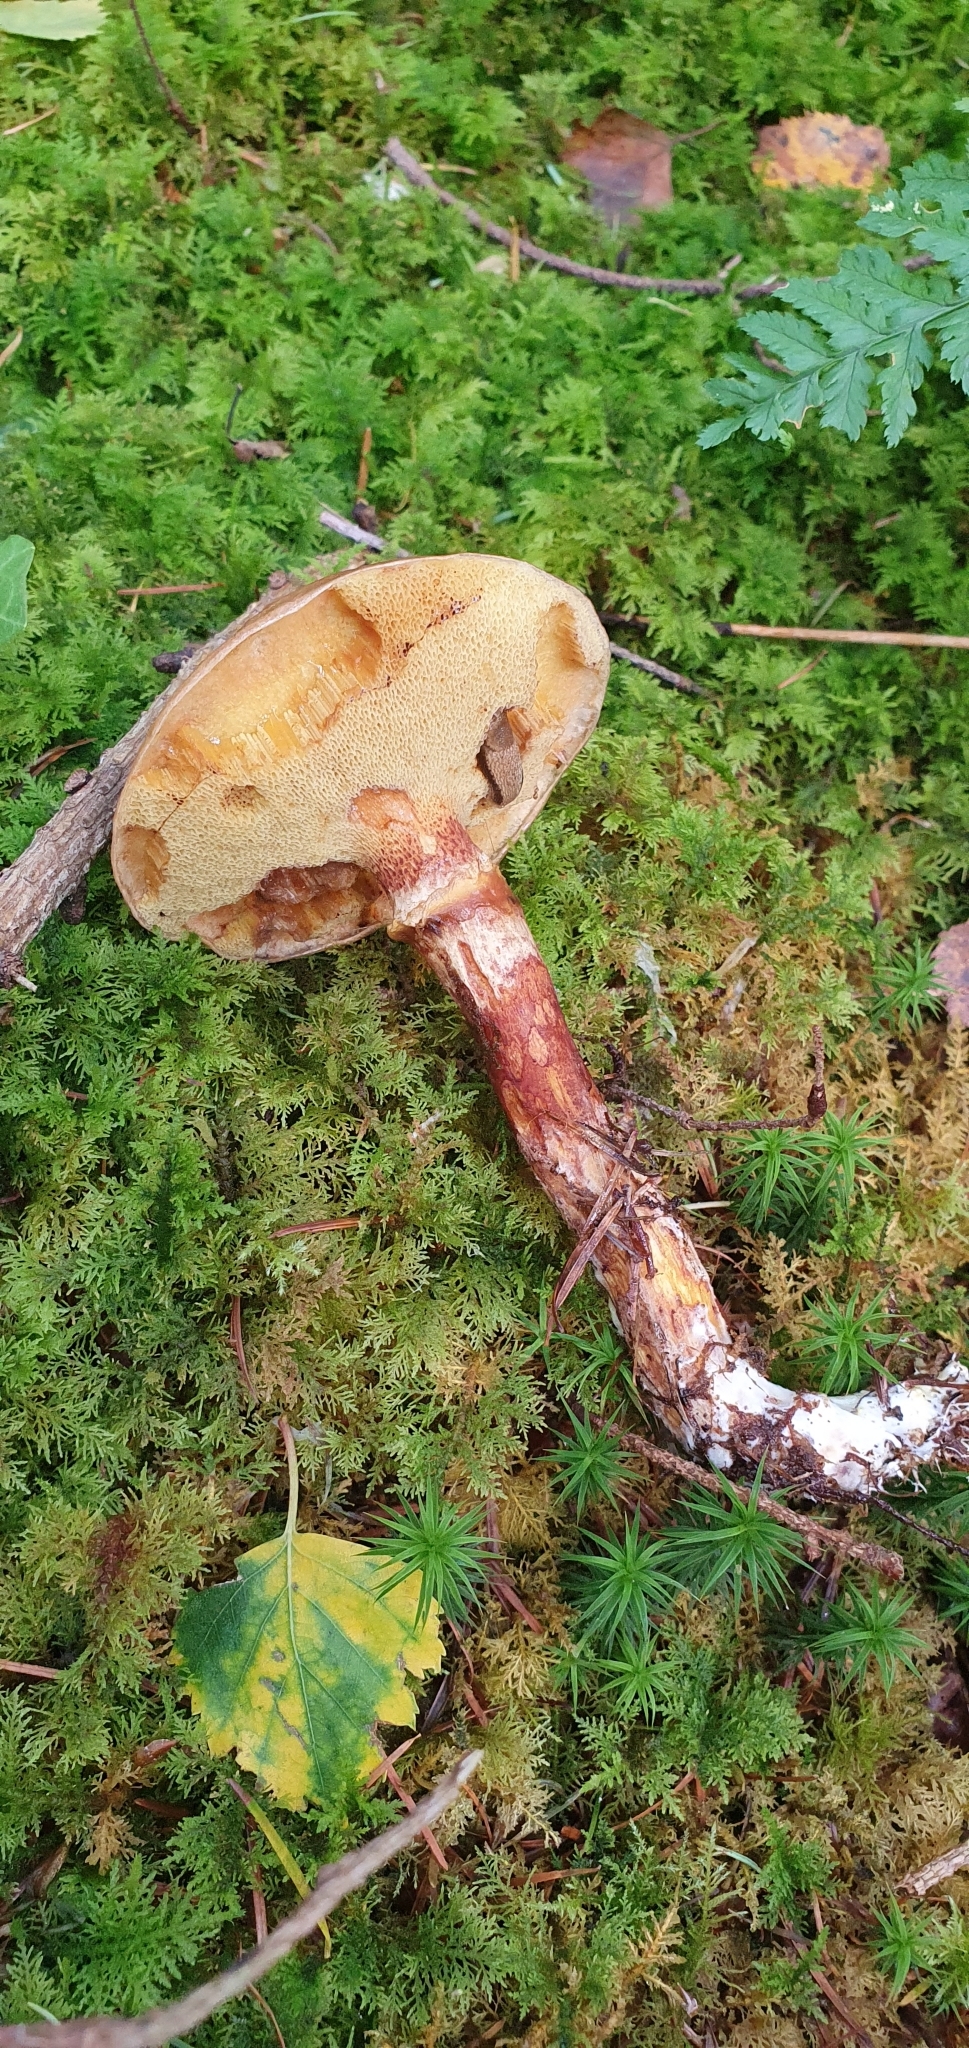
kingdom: Fungi
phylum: Basidiomycota
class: Agaricomycetes
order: Boletales
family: Suillaceae
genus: Suillus
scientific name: Suillus grevillei
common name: Larch bolete
